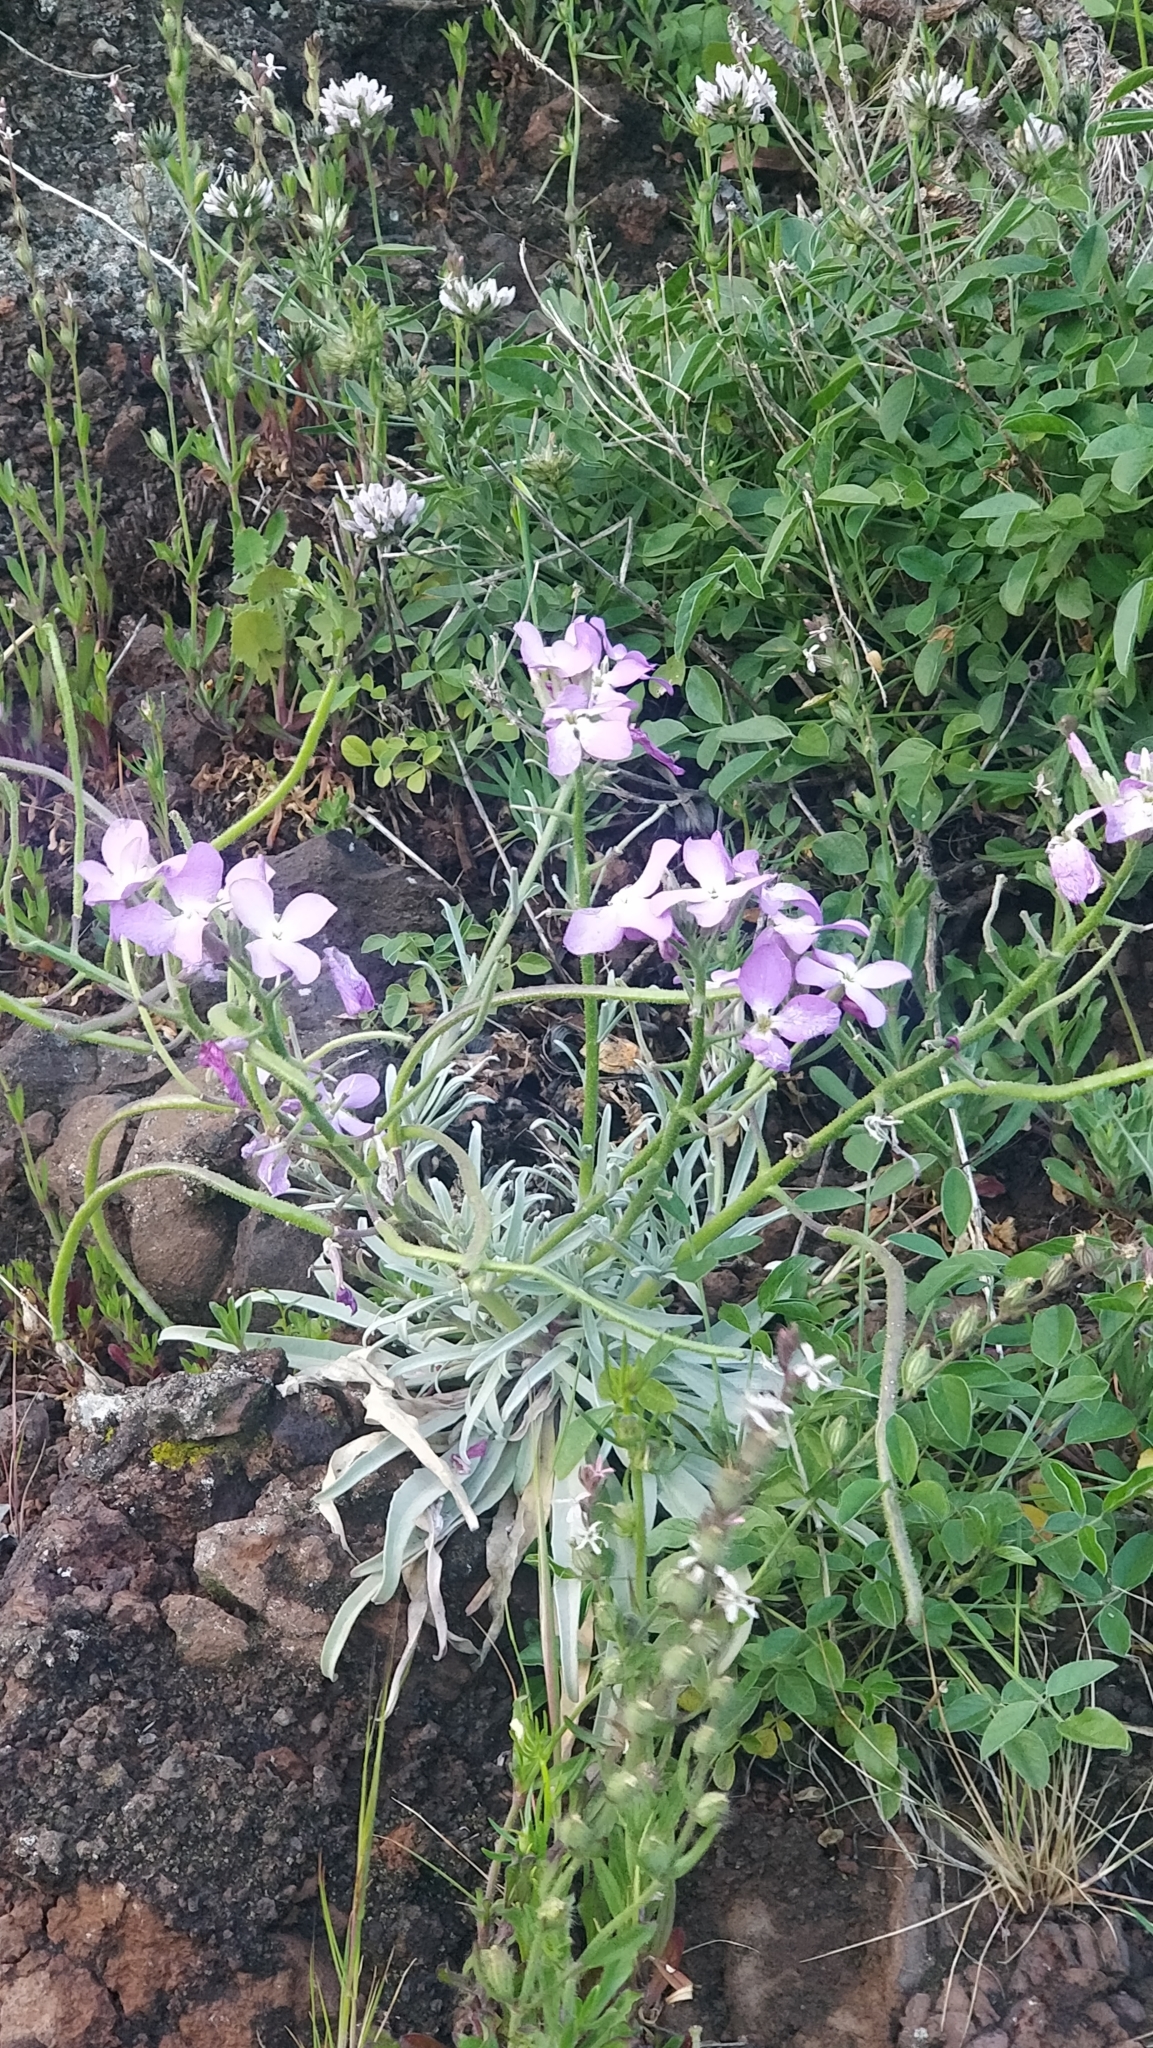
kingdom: Plantae
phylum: Tracheophyta
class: Magnoliopsida
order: Brassicales
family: Brassicaceae
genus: Matthiola
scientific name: Matthiola maderensis
